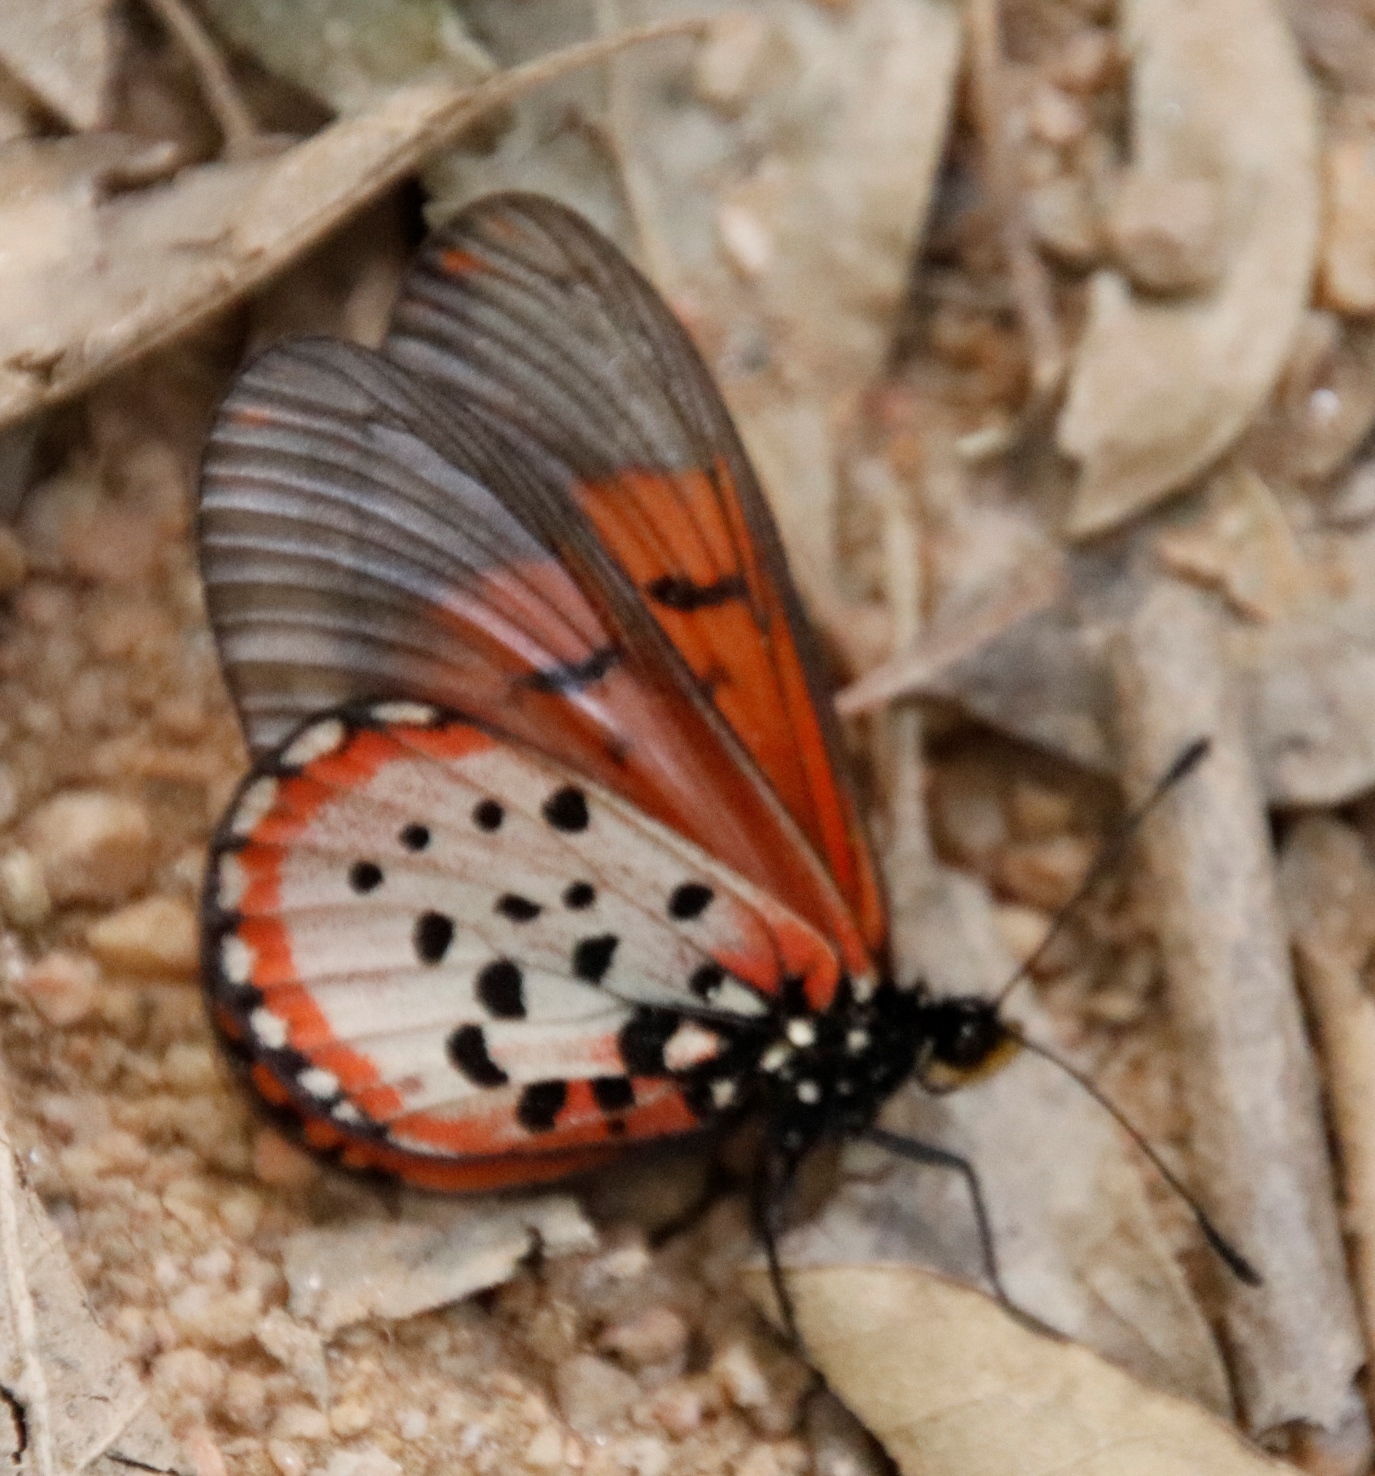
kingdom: Animalia
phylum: Arthropoda
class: Insecta
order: Lepidoptera
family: Nymphalidae
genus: Acraea
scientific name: Acraea horta
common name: Garden acraea
